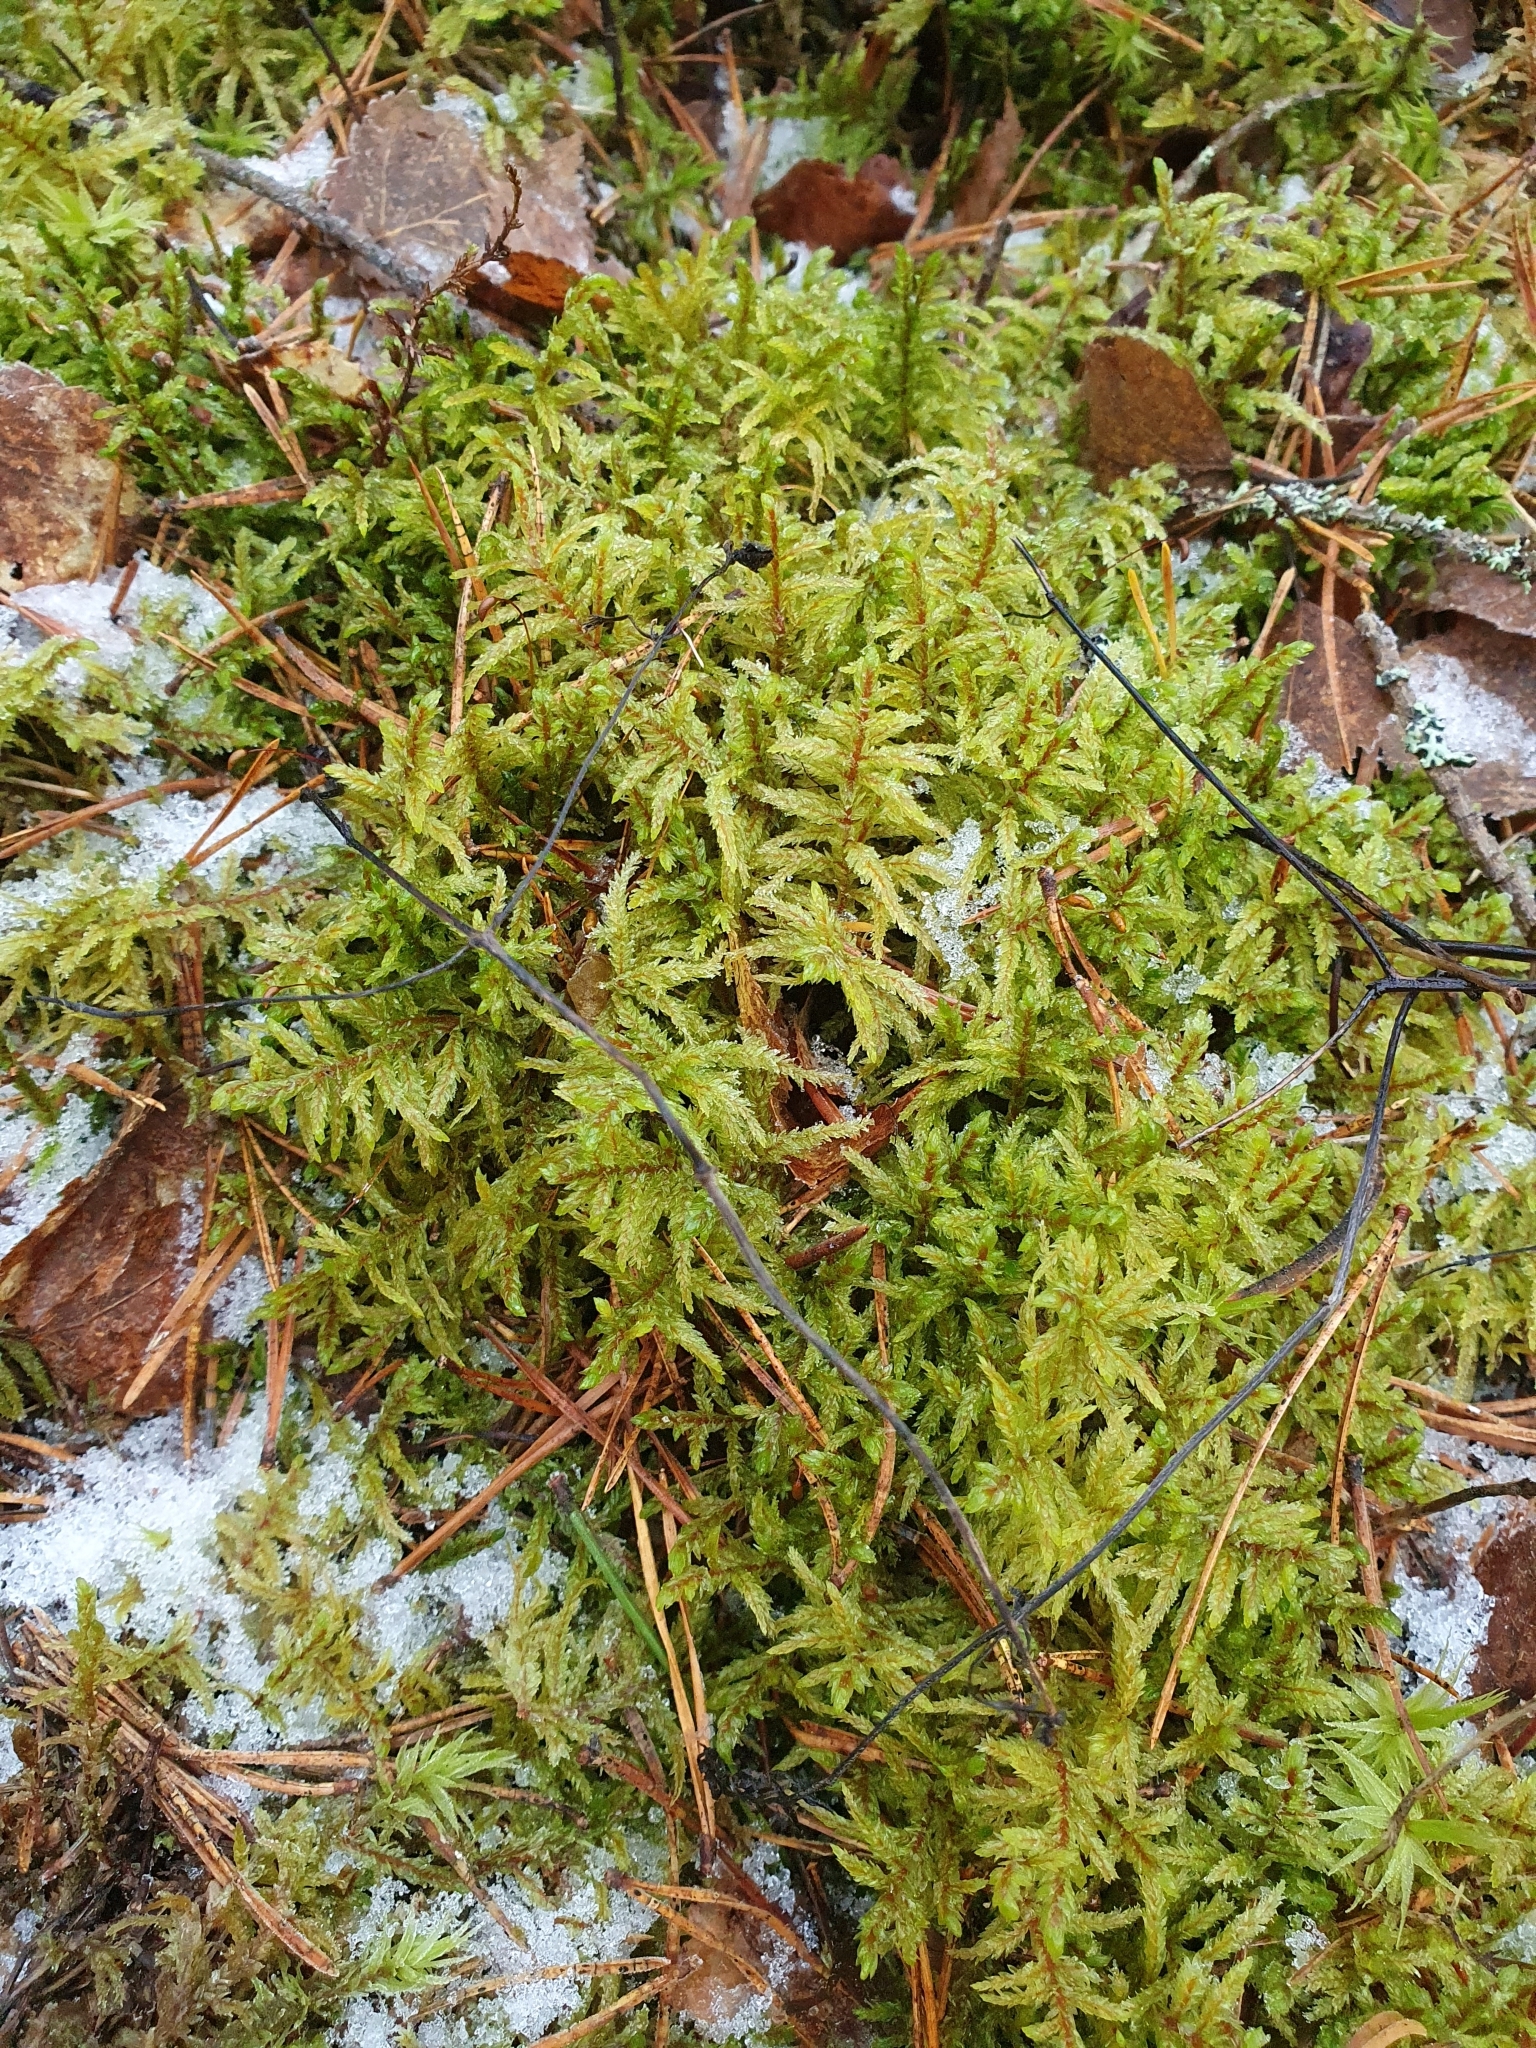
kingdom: Plantae
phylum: Bryophyta
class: Bryopsida
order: Hypnales
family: Hylocomiaceae
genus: Pleurozium
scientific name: Pleurozium schreberi
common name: Red-stemmed feather moss
